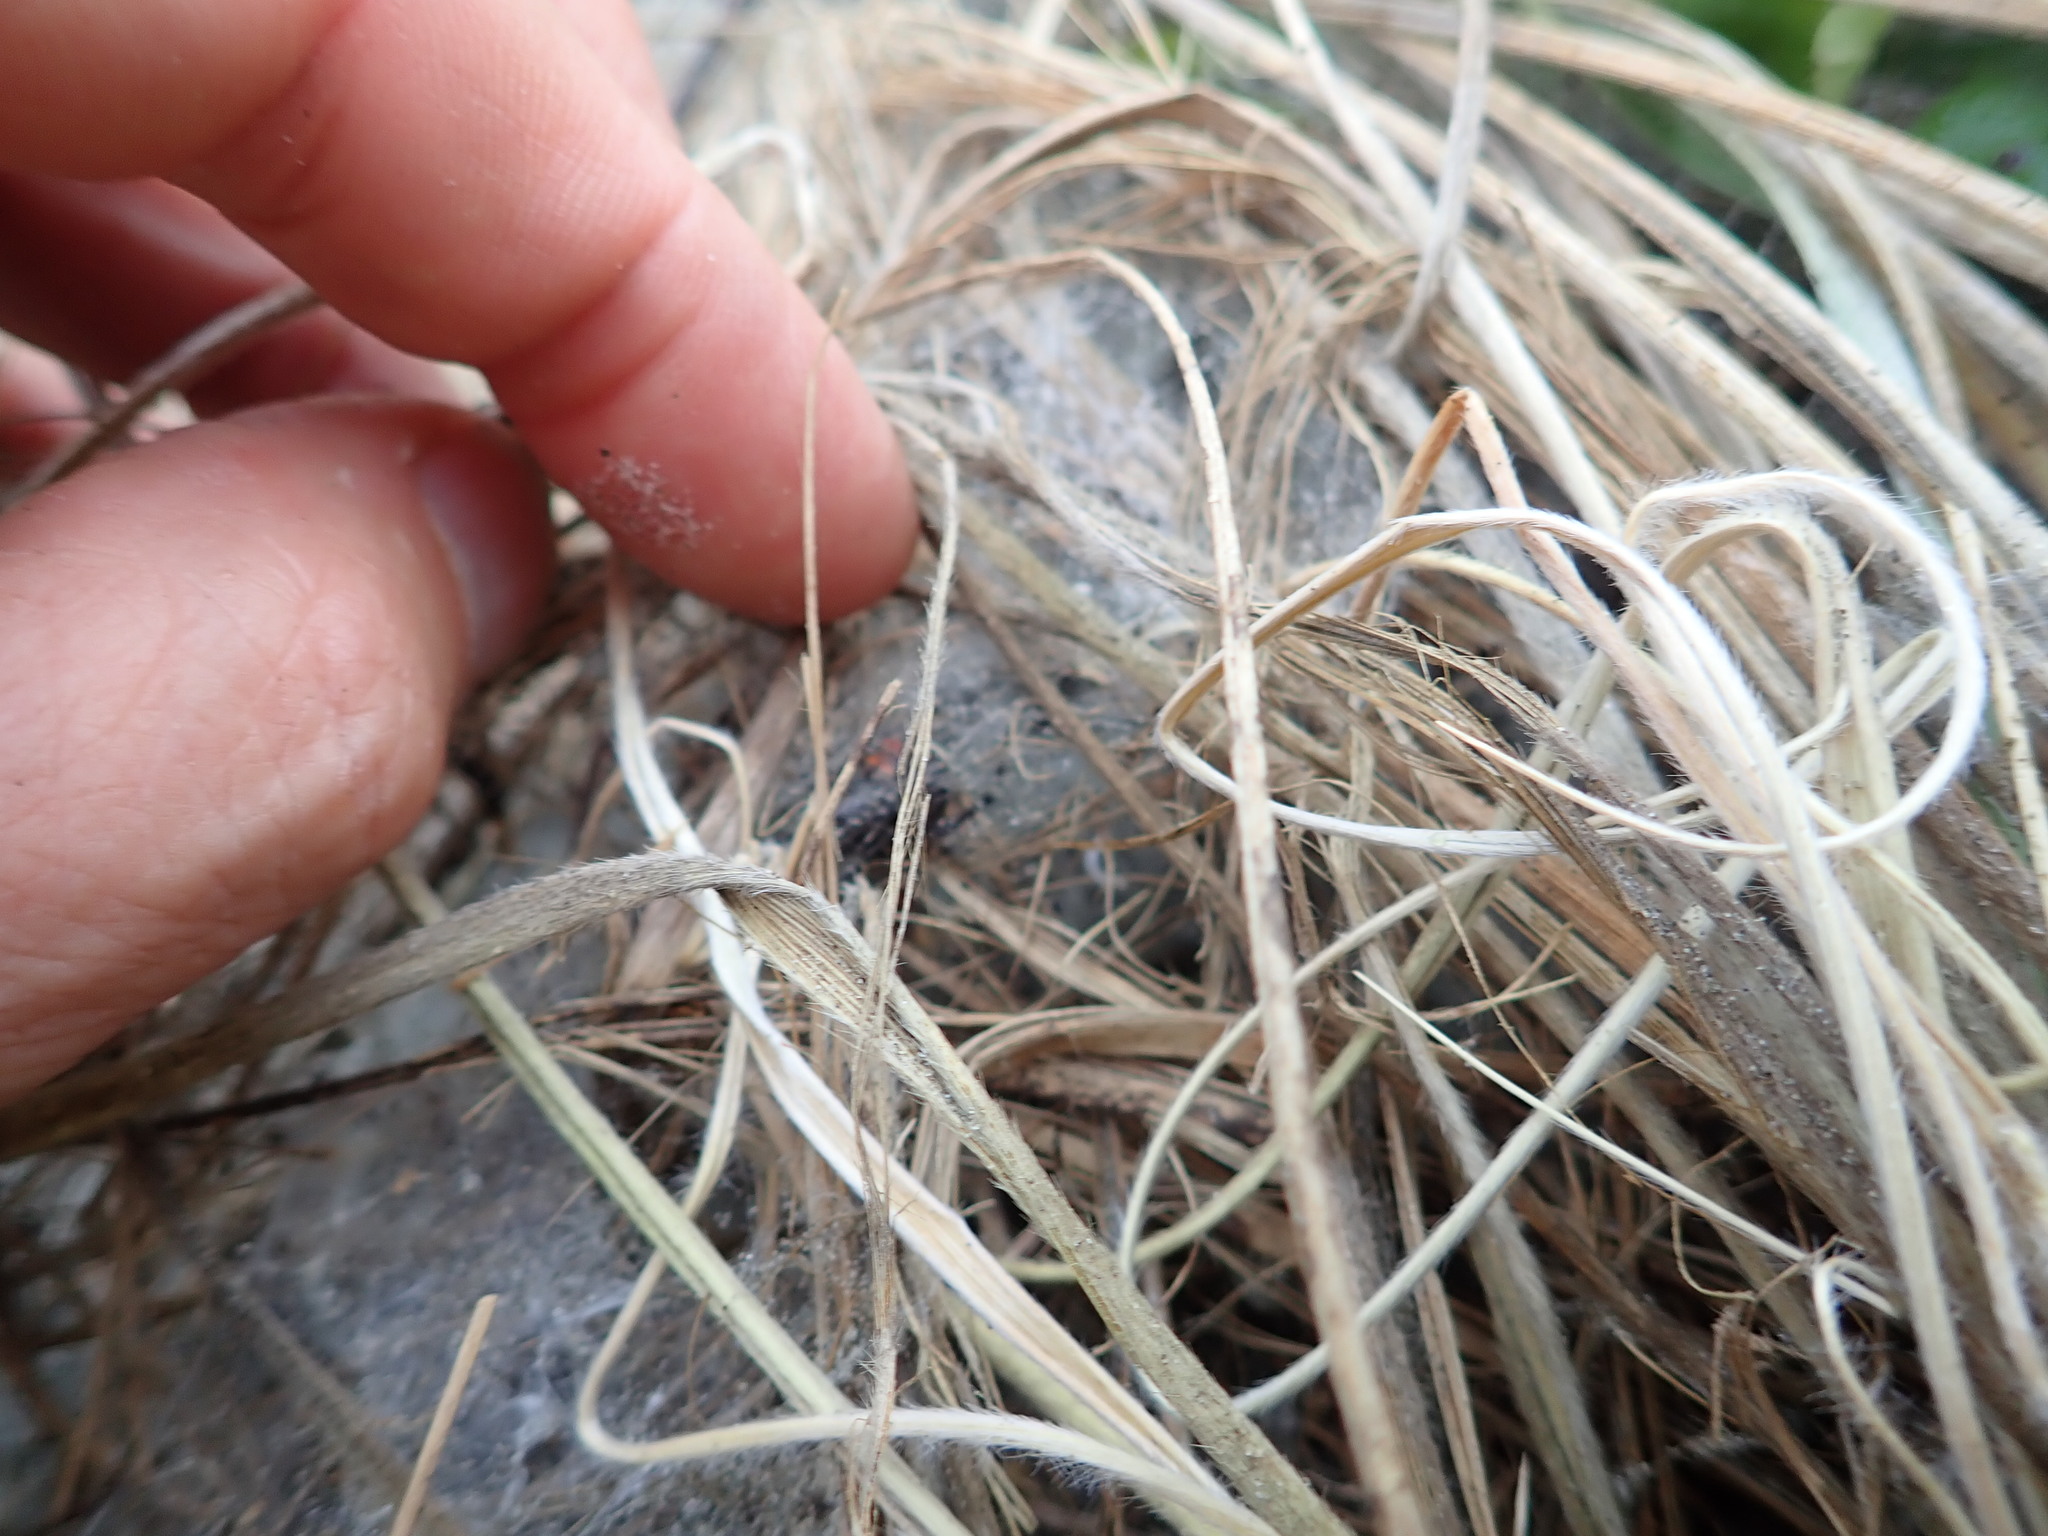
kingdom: Animalia
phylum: Arthropoda
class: Arachnida
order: Araneae
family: Theridiidae
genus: Latrodectus
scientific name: Latrodectus katipo
